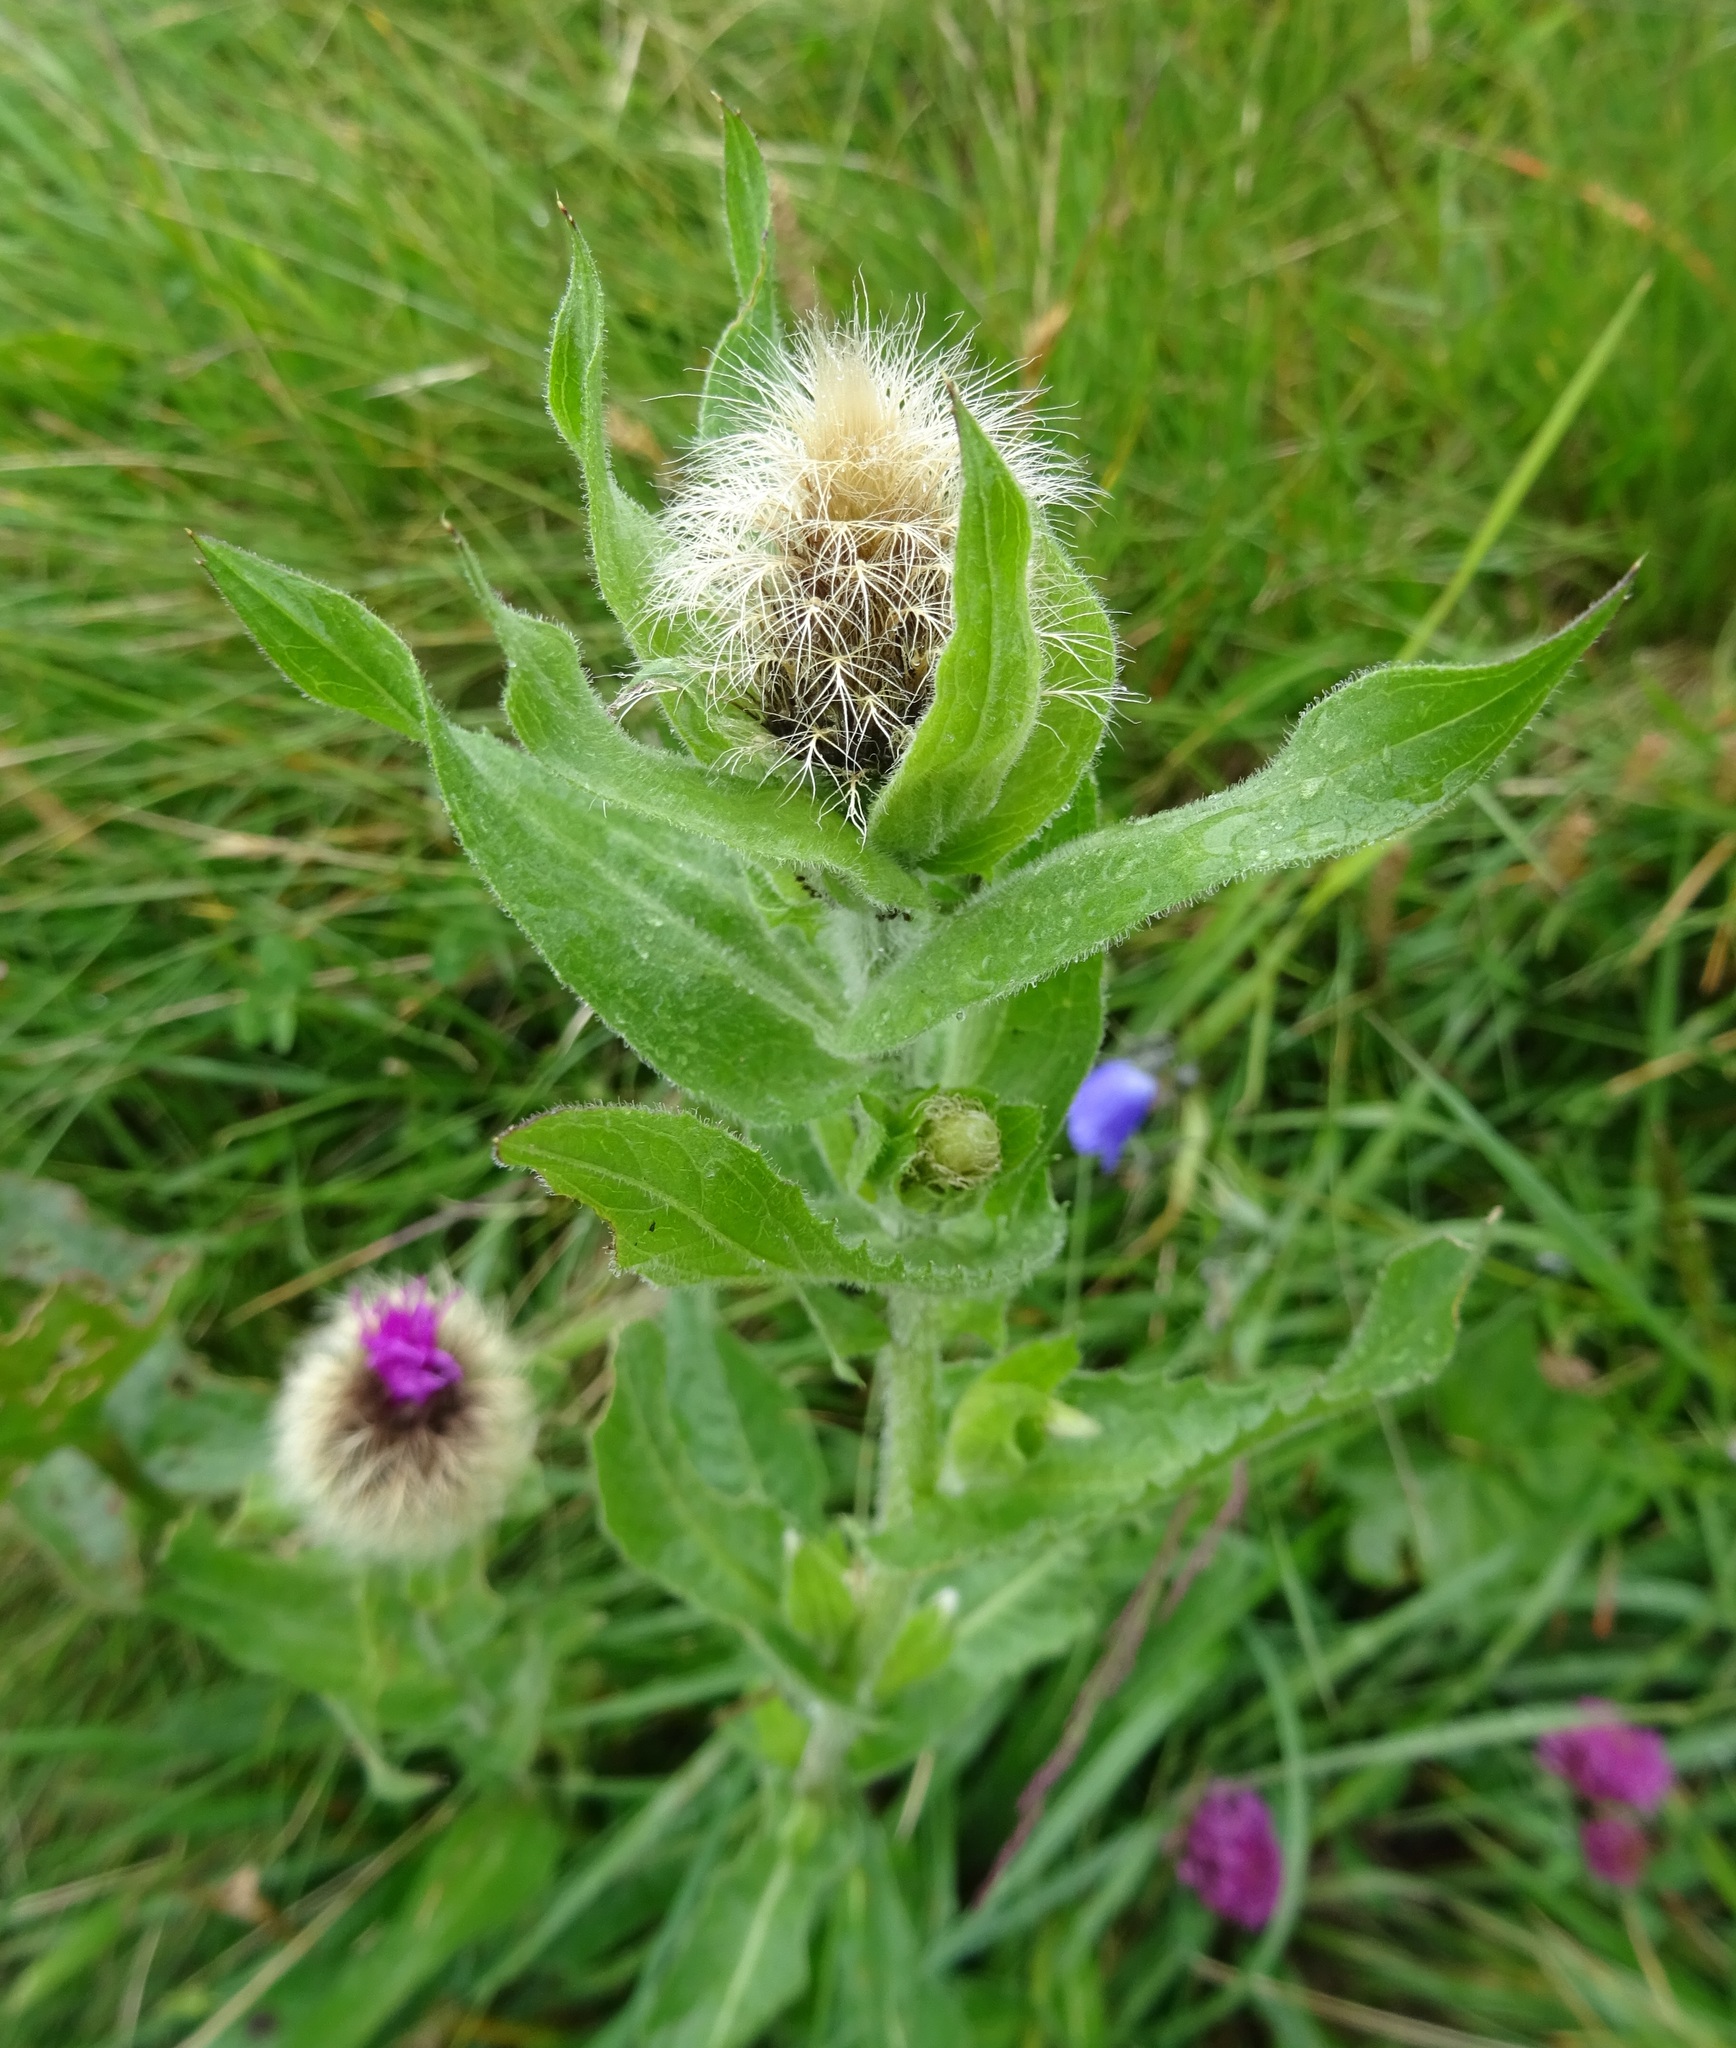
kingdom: Plantae
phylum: Tracheophyta
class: Magnoliopsida
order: Asterales
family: Asteraceae
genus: Centaurea
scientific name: Centaurea nervosa
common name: Singleflower knapweed
